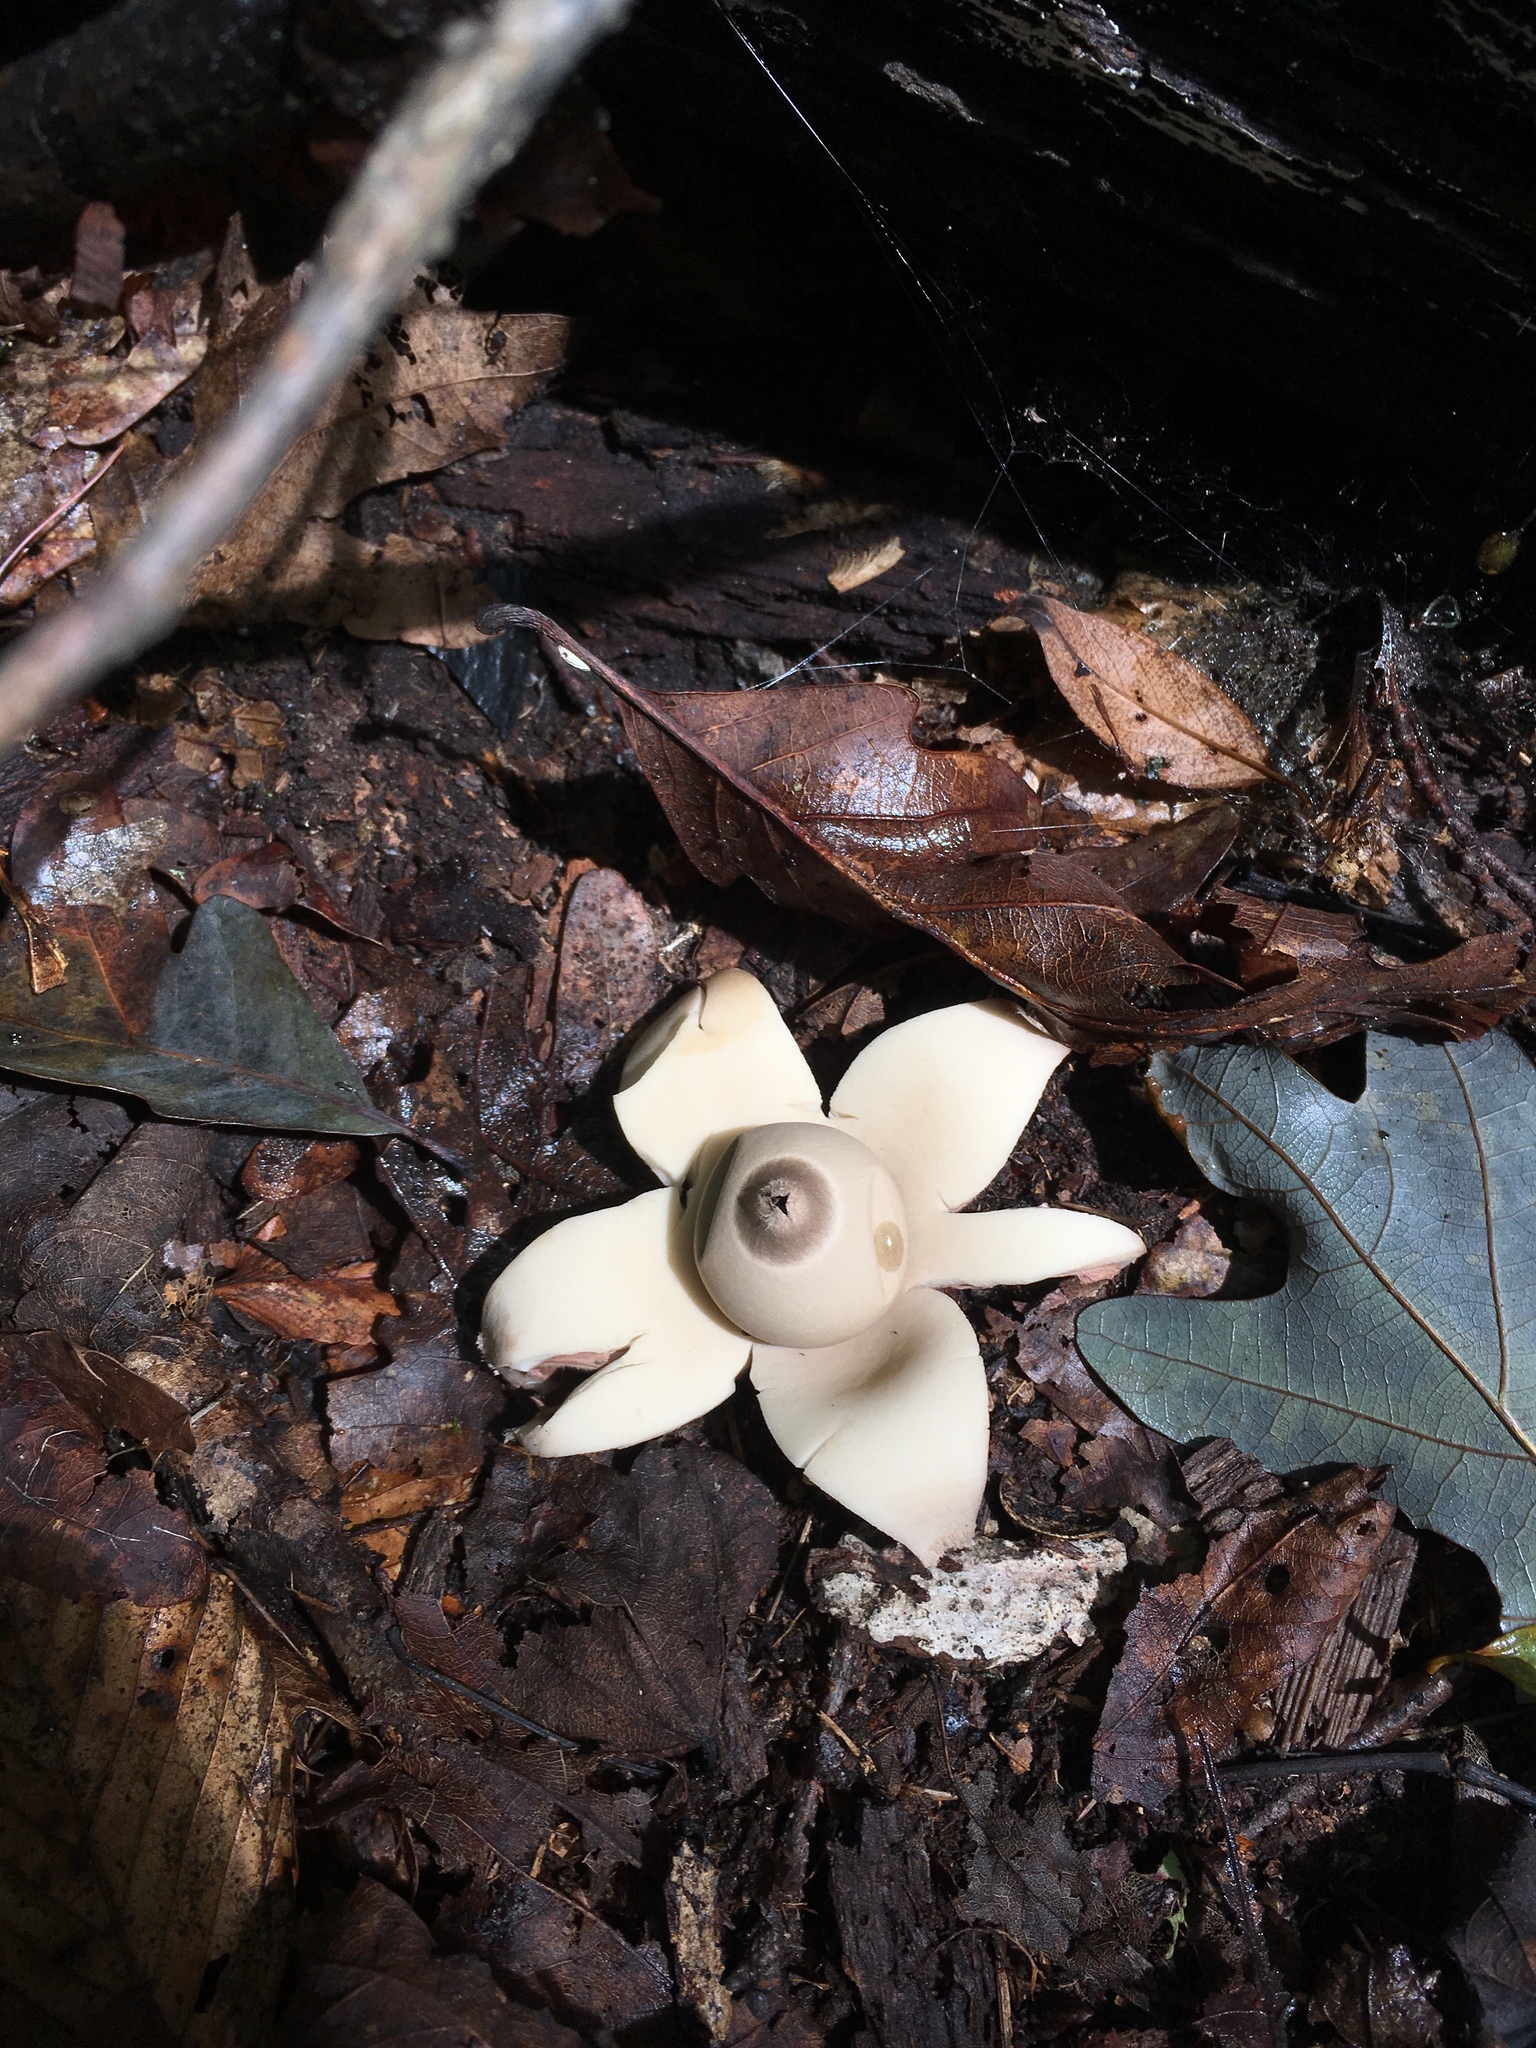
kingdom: Fungi
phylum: Basidiomycota
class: Agaricomycetes
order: Geastrales
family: Geastraceae
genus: Geastrum
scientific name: Geastrum saccatum
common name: Rounded earthstar
